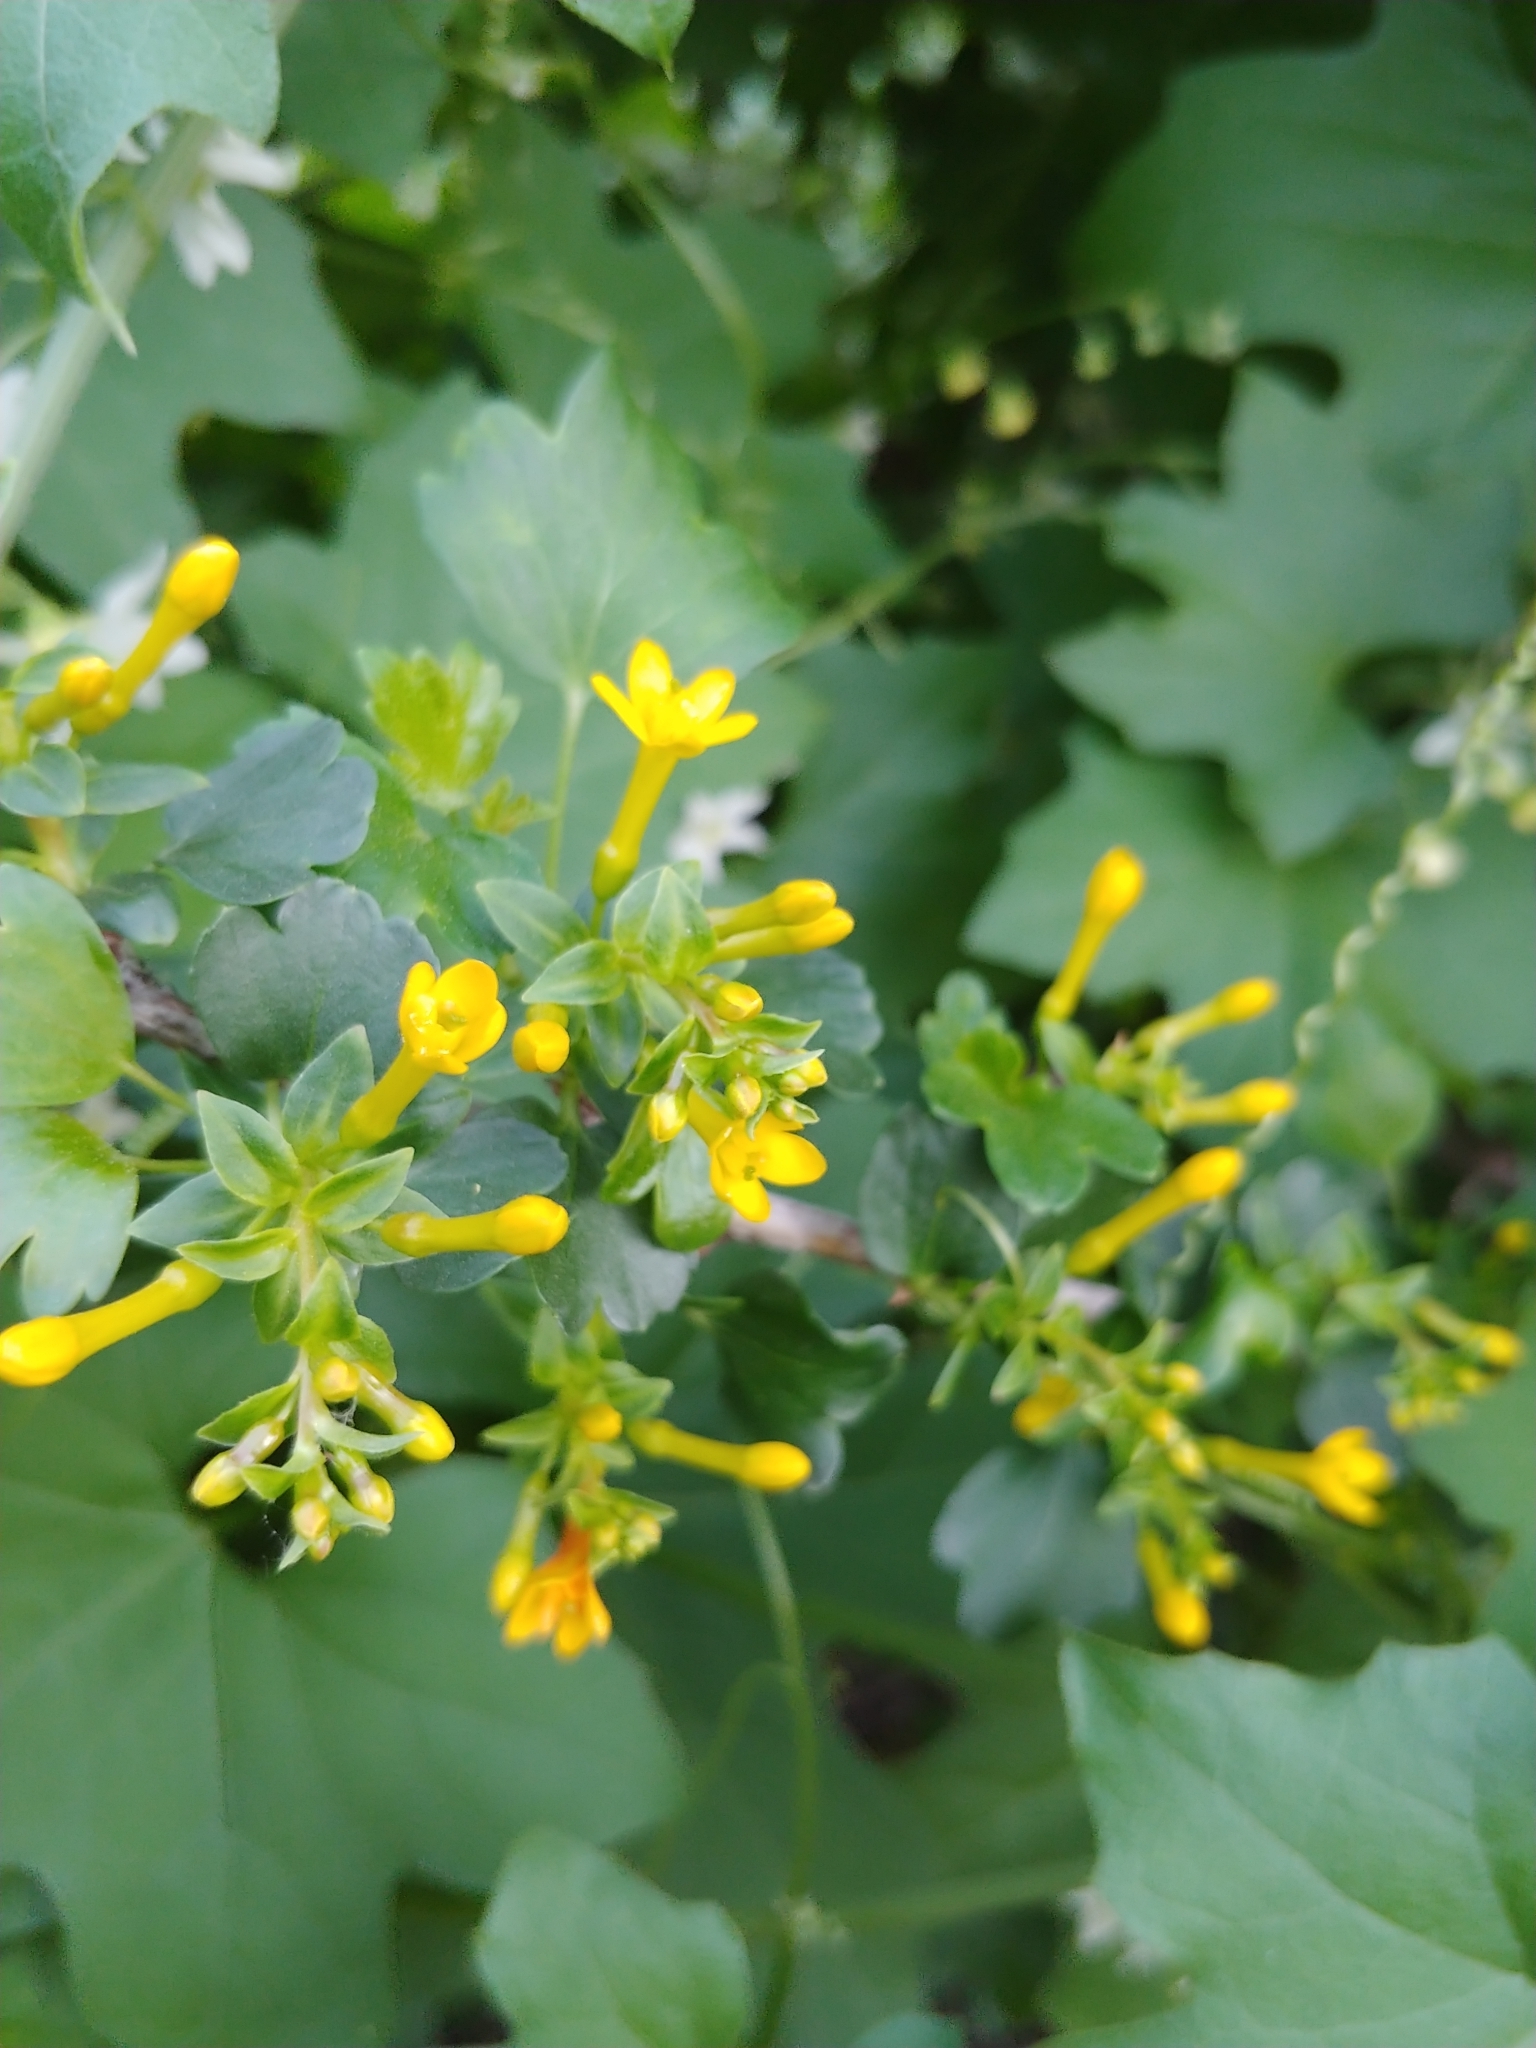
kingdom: Plantae
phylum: Tracheophyta
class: Magnoliopsida
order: Saxifragales
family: Grossulariaceae
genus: Ribes
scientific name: Ribes aureum
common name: Golden currant
